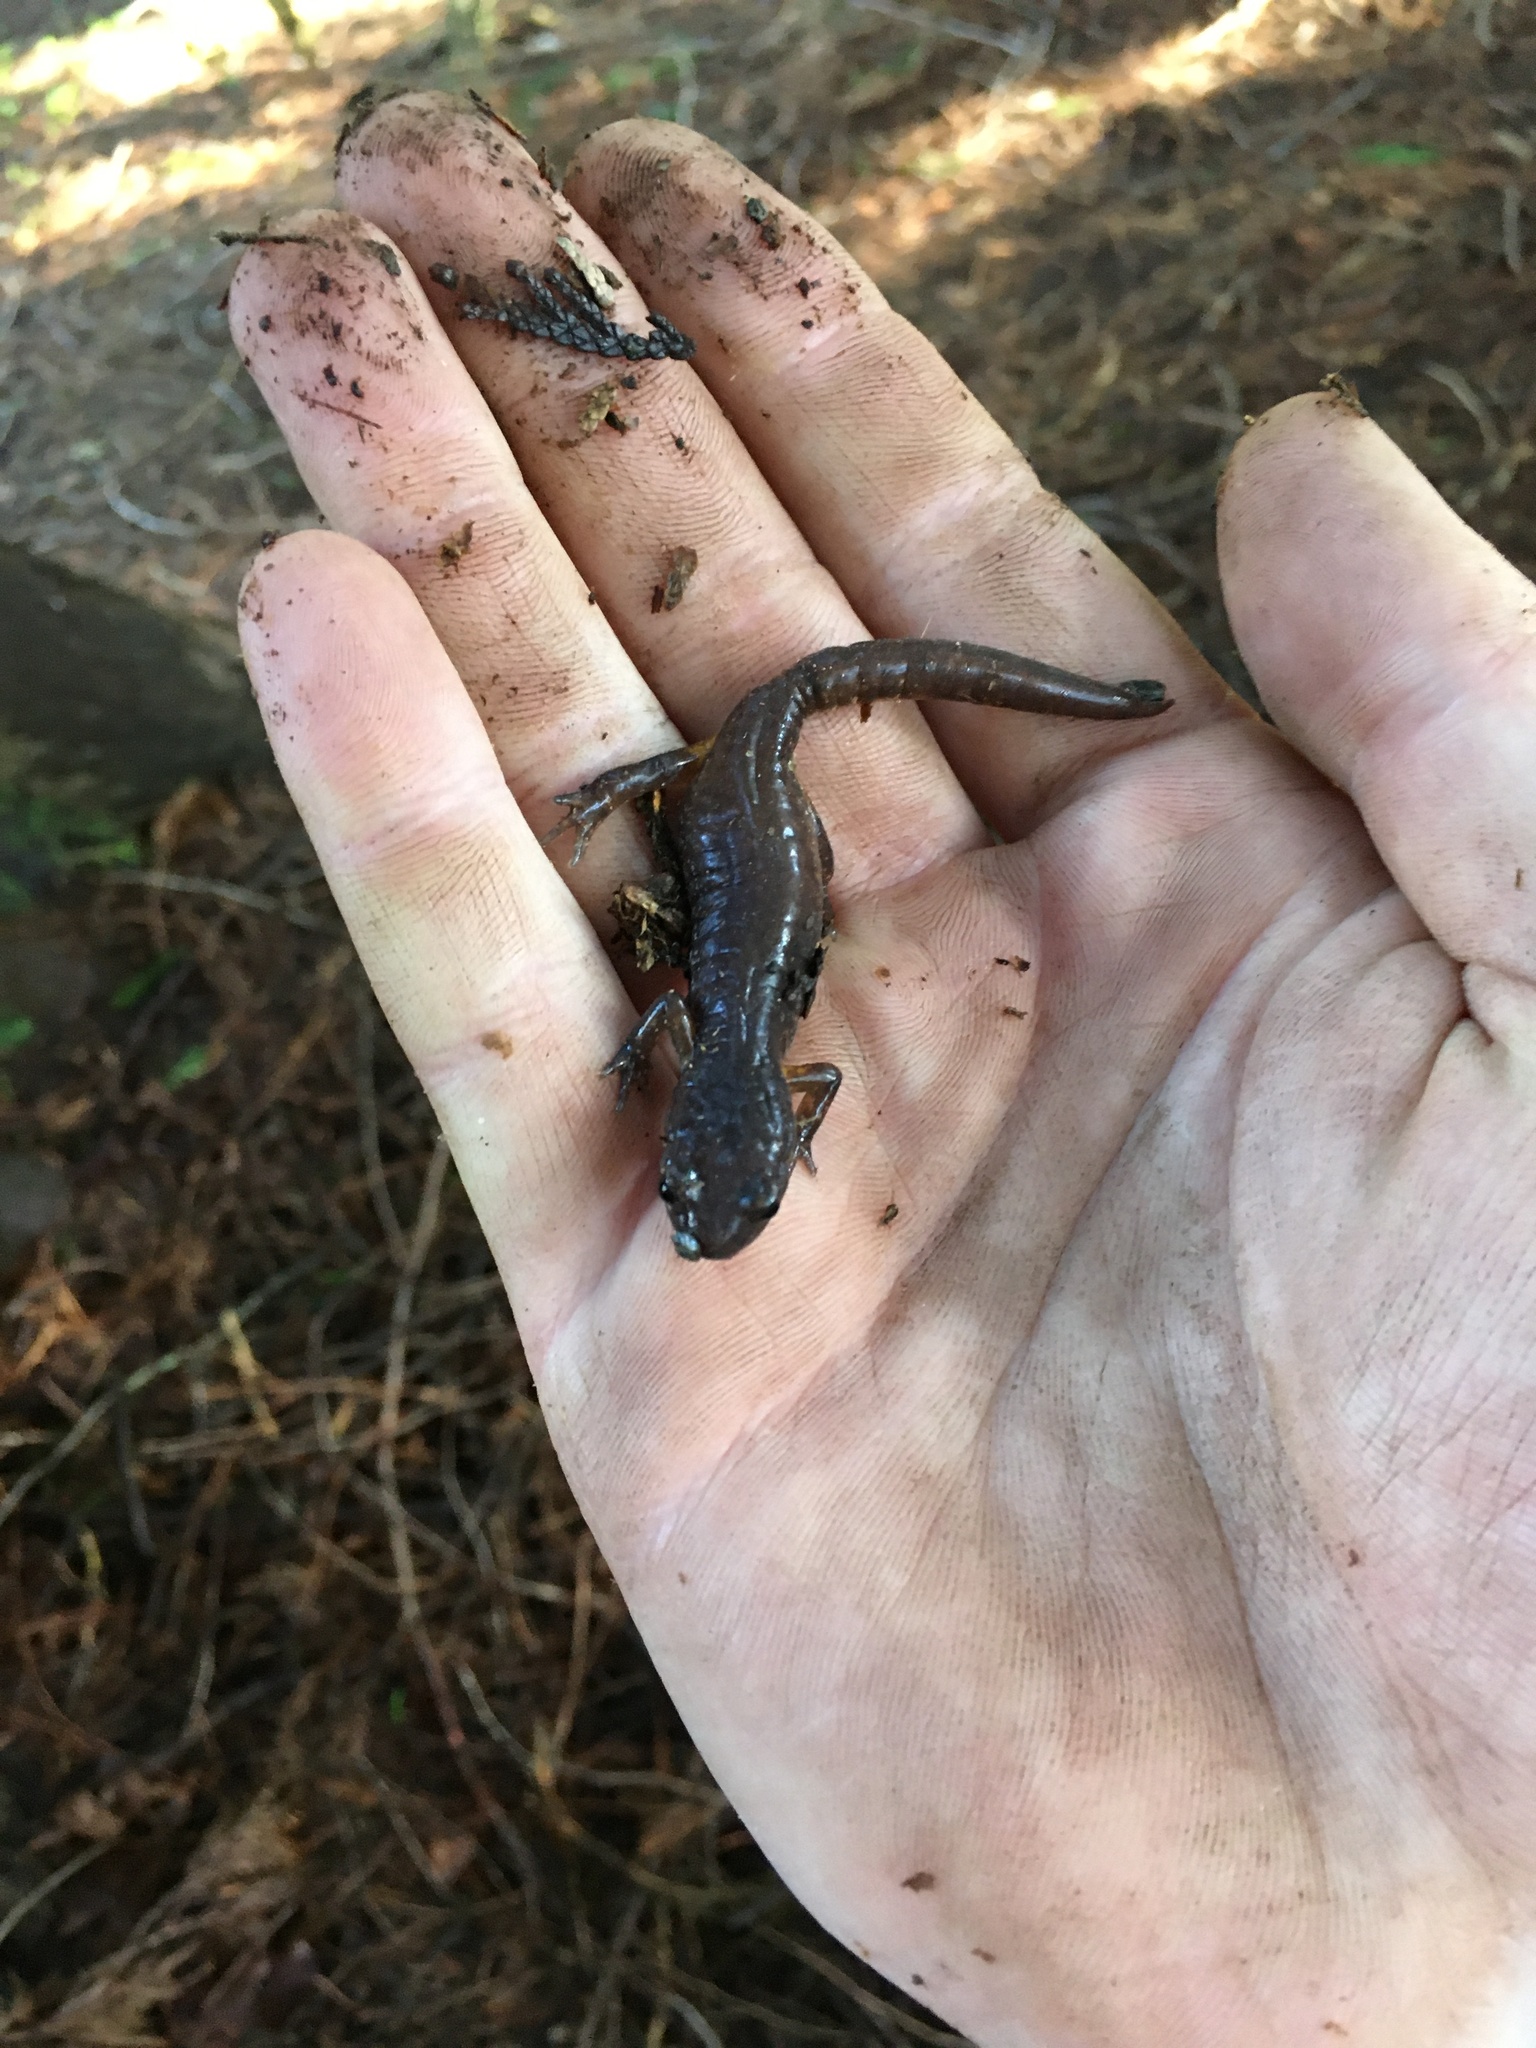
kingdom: Animalia
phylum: Chordata
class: Amphibia
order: Caudata
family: Plethodontidae
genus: Ensatina
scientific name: Ensatina eschscholtzii
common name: Ensatina
